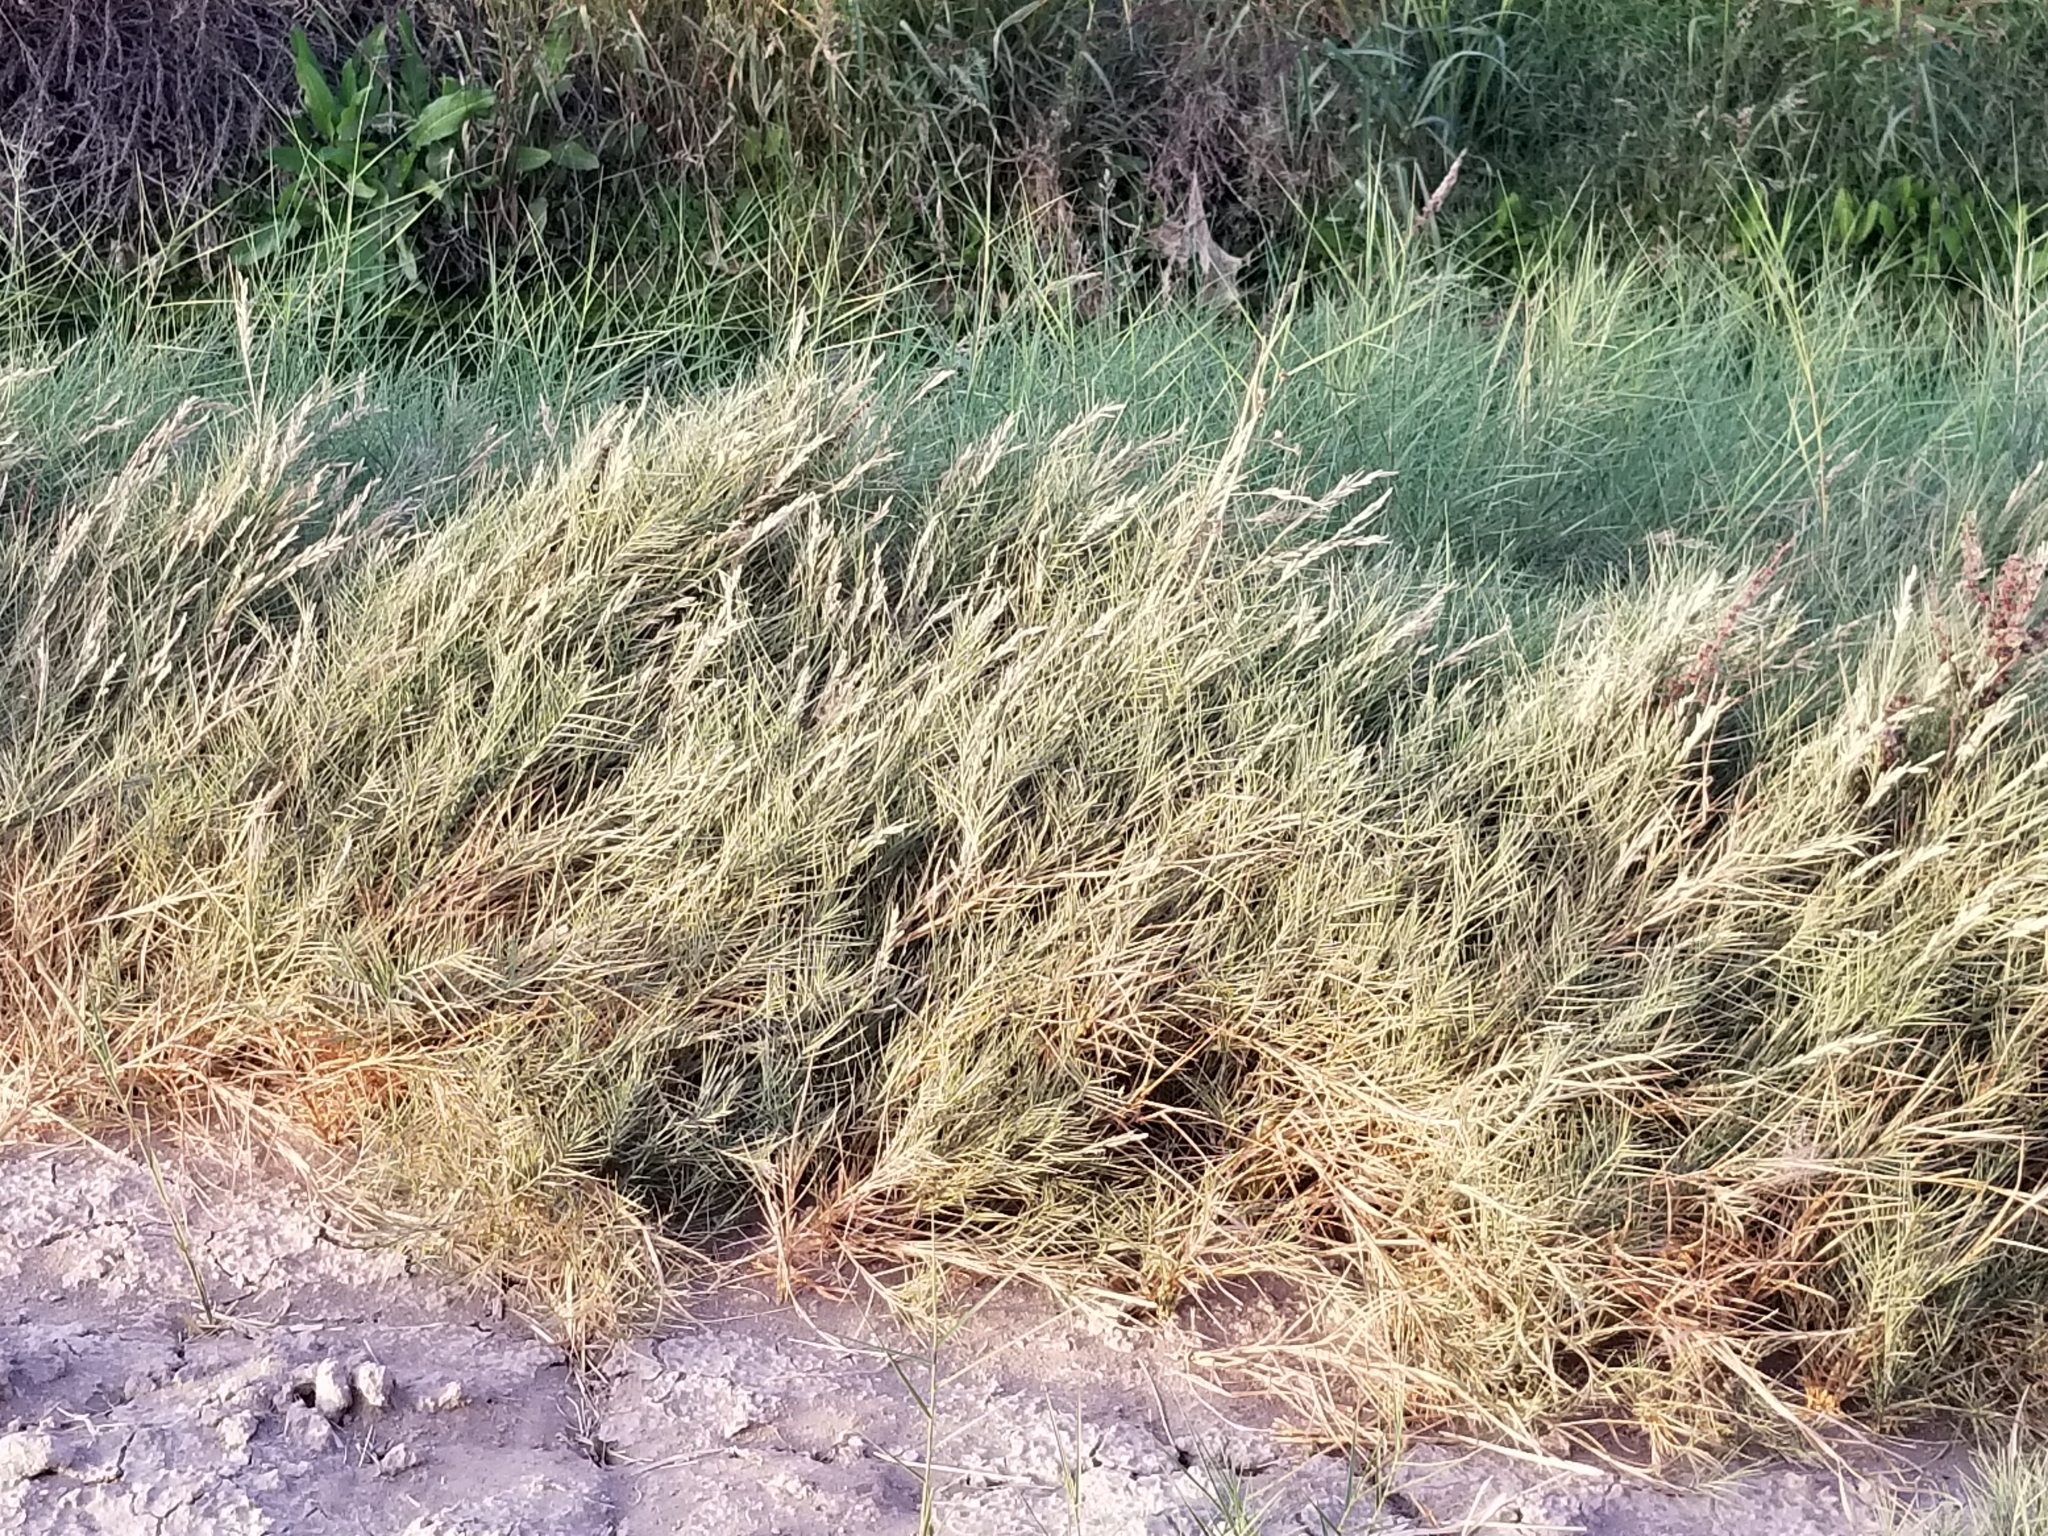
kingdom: Plantae
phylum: Tracheophyta
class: Liliopsida
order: Poales
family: Poaceae
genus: Distichlis
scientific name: Distichlis spicata
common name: Saltgrass
